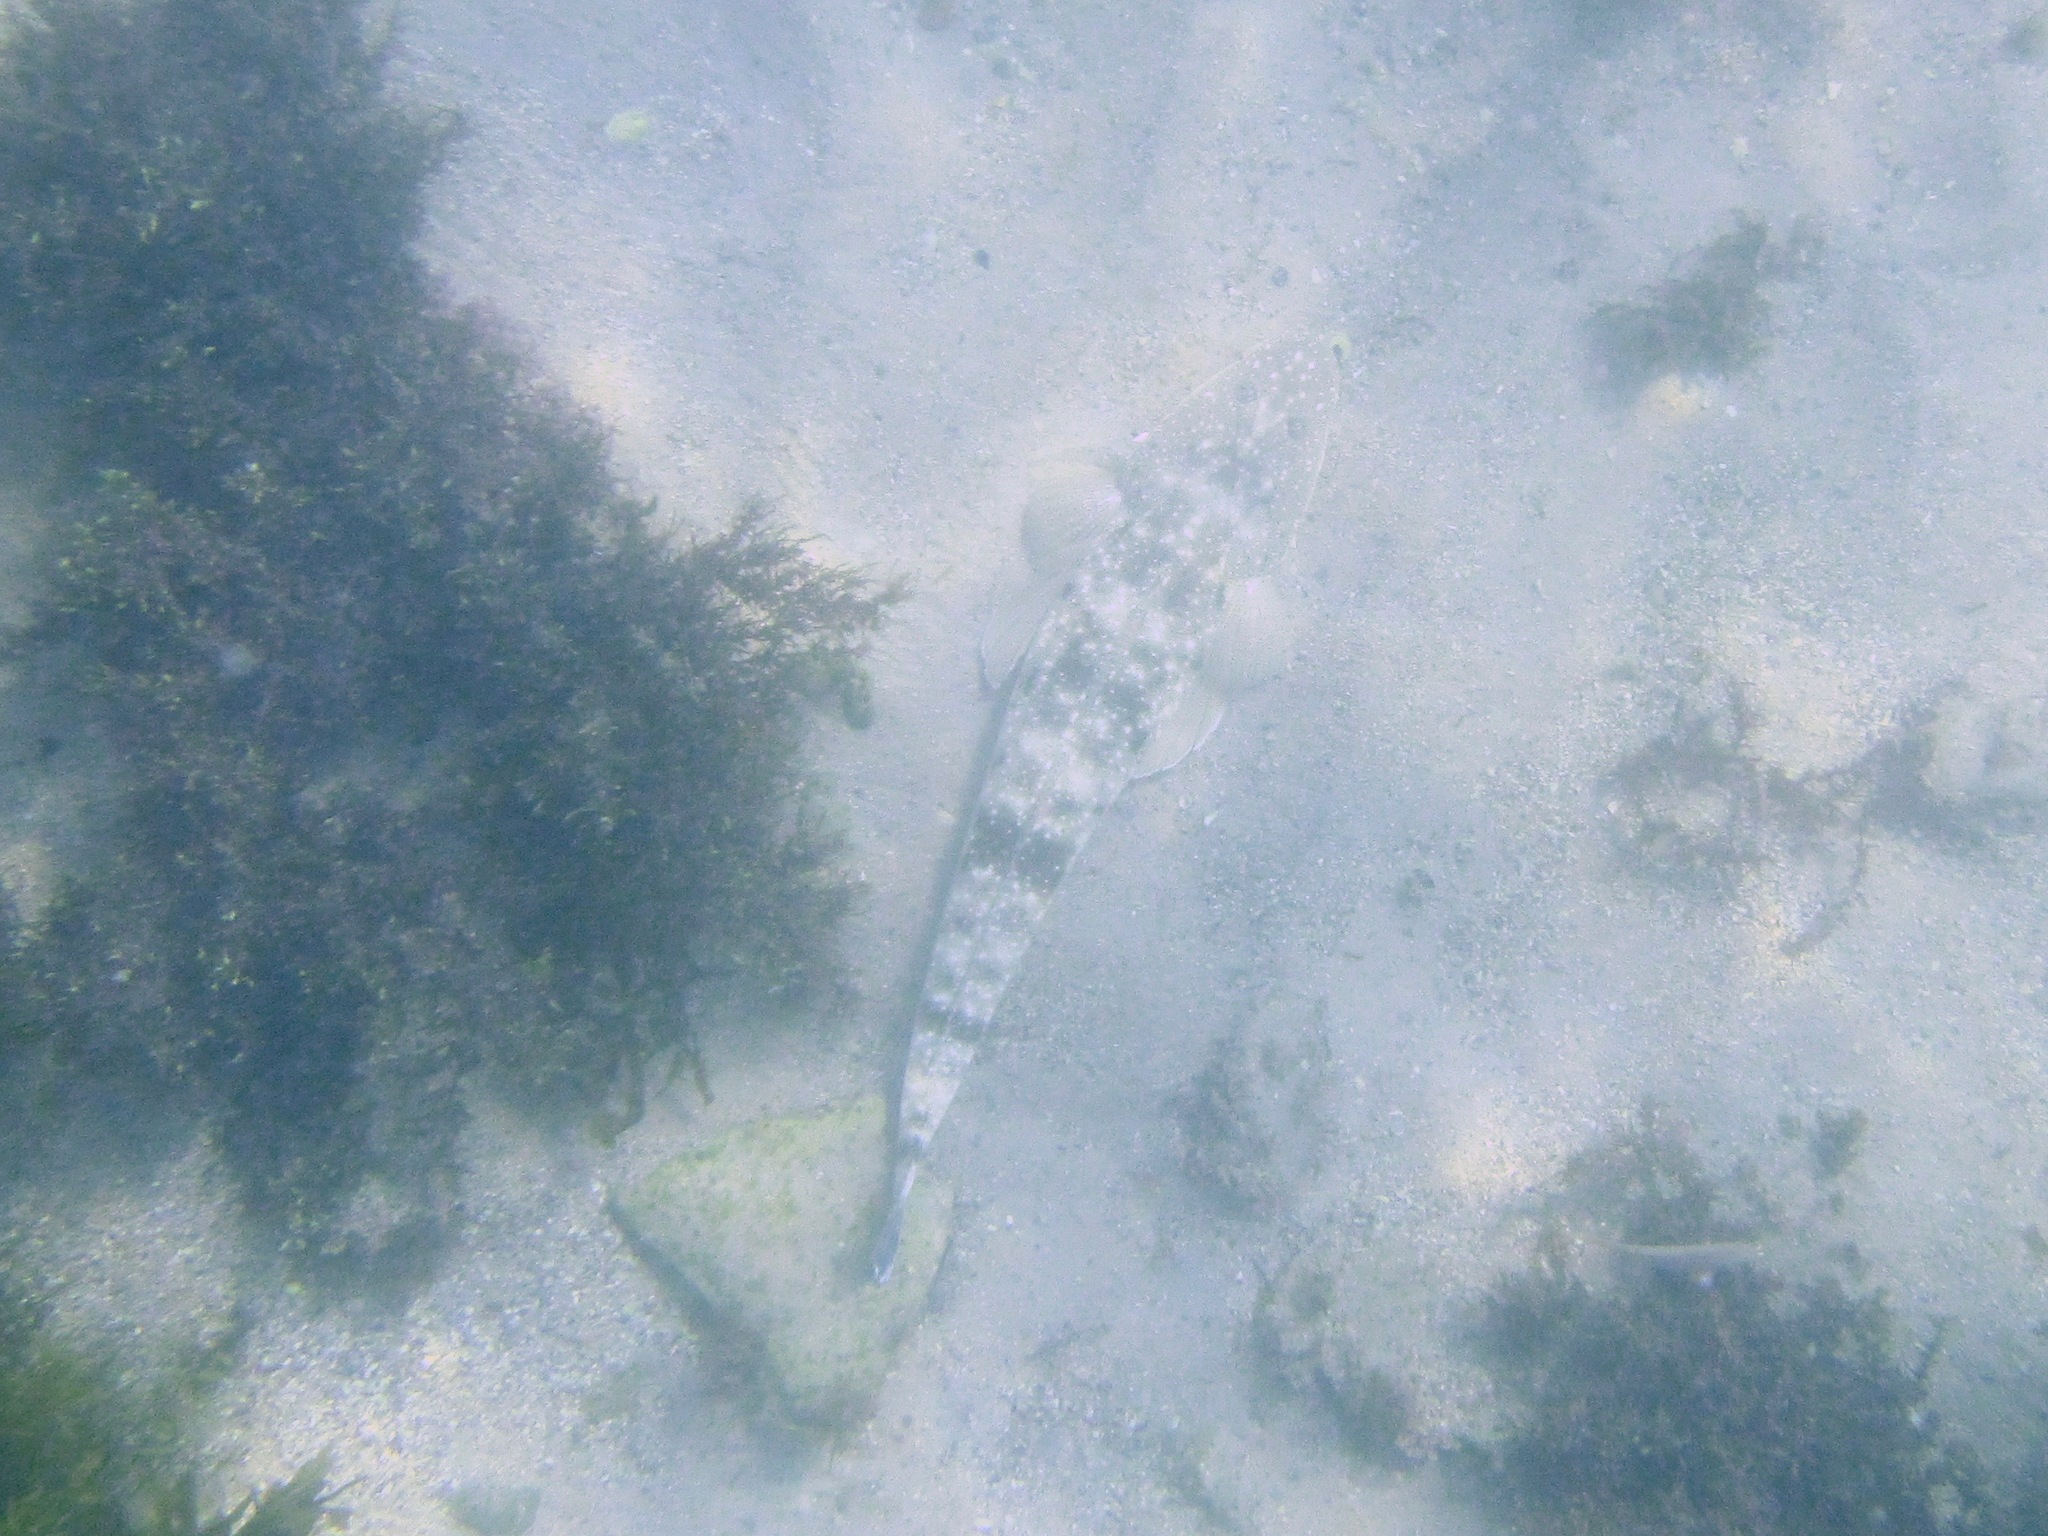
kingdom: Animalia
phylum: Chordata
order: Scorpaeniformes
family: Platycephalidae
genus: Platycephalus
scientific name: Platycephalus fuscus
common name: Dusky flathead
